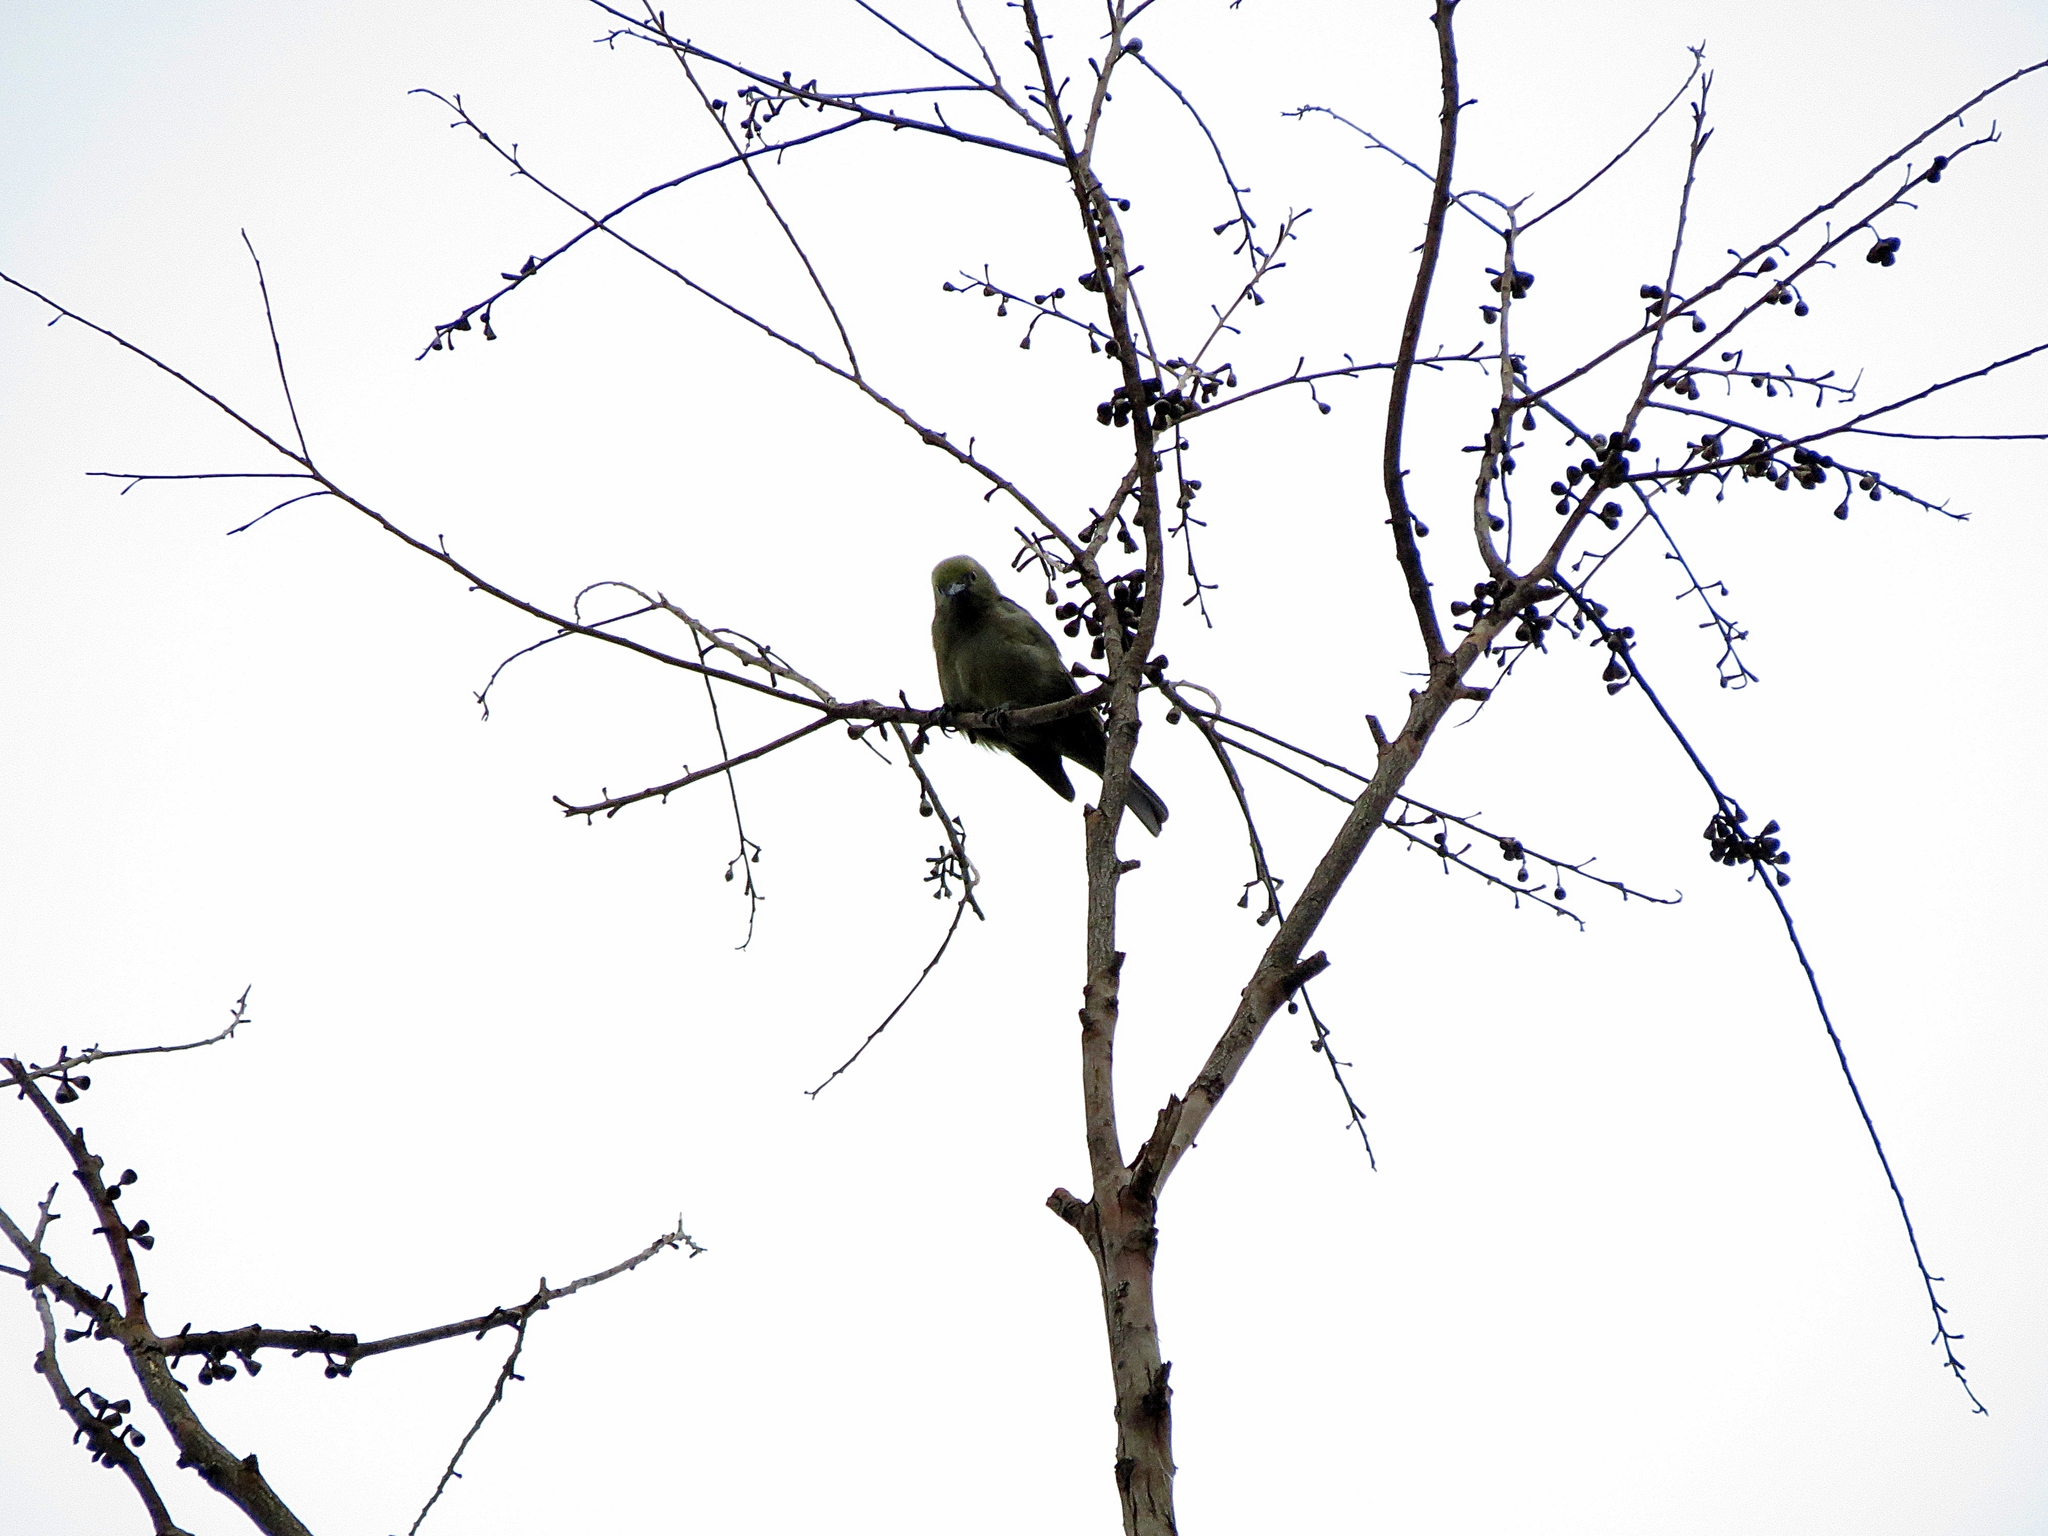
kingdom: Animalia
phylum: Chordata
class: Aves
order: Passeriformes
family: Thraupidae
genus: Thraupis
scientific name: Thraupis palmarum
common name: Palm tanager
